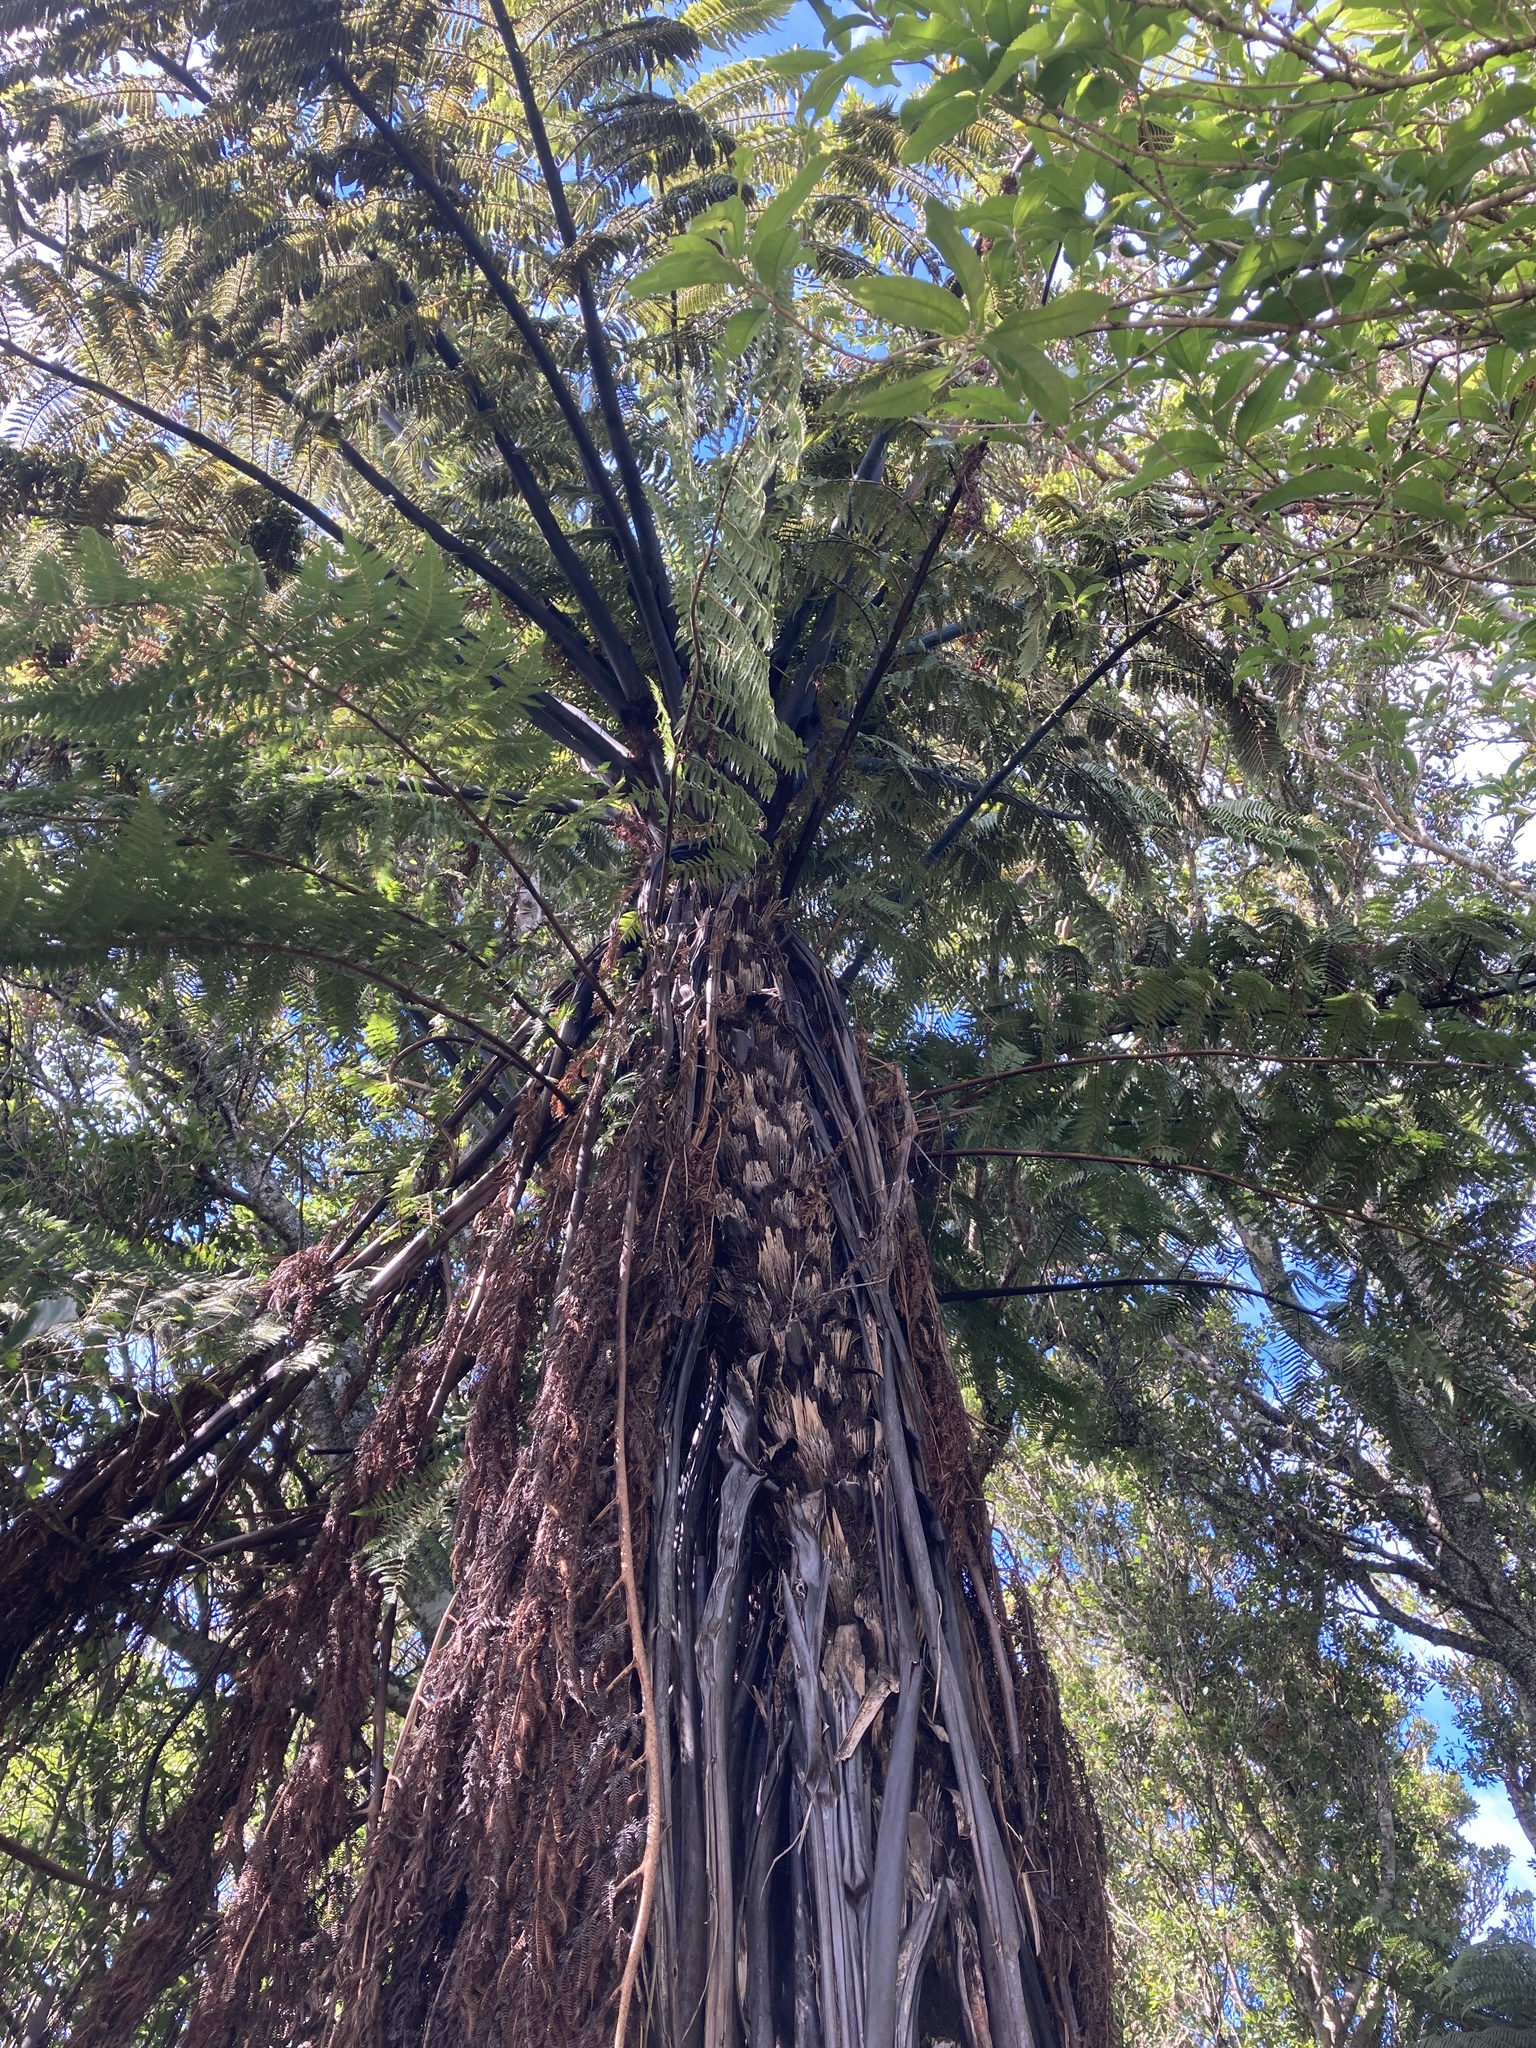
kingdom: Plantae
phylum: Tracheophyta
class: Polypodiopsida
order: Cyatheales
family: Cyatheaceae
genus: Sphaeropteris
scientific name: Sphaeropteris medullaris
